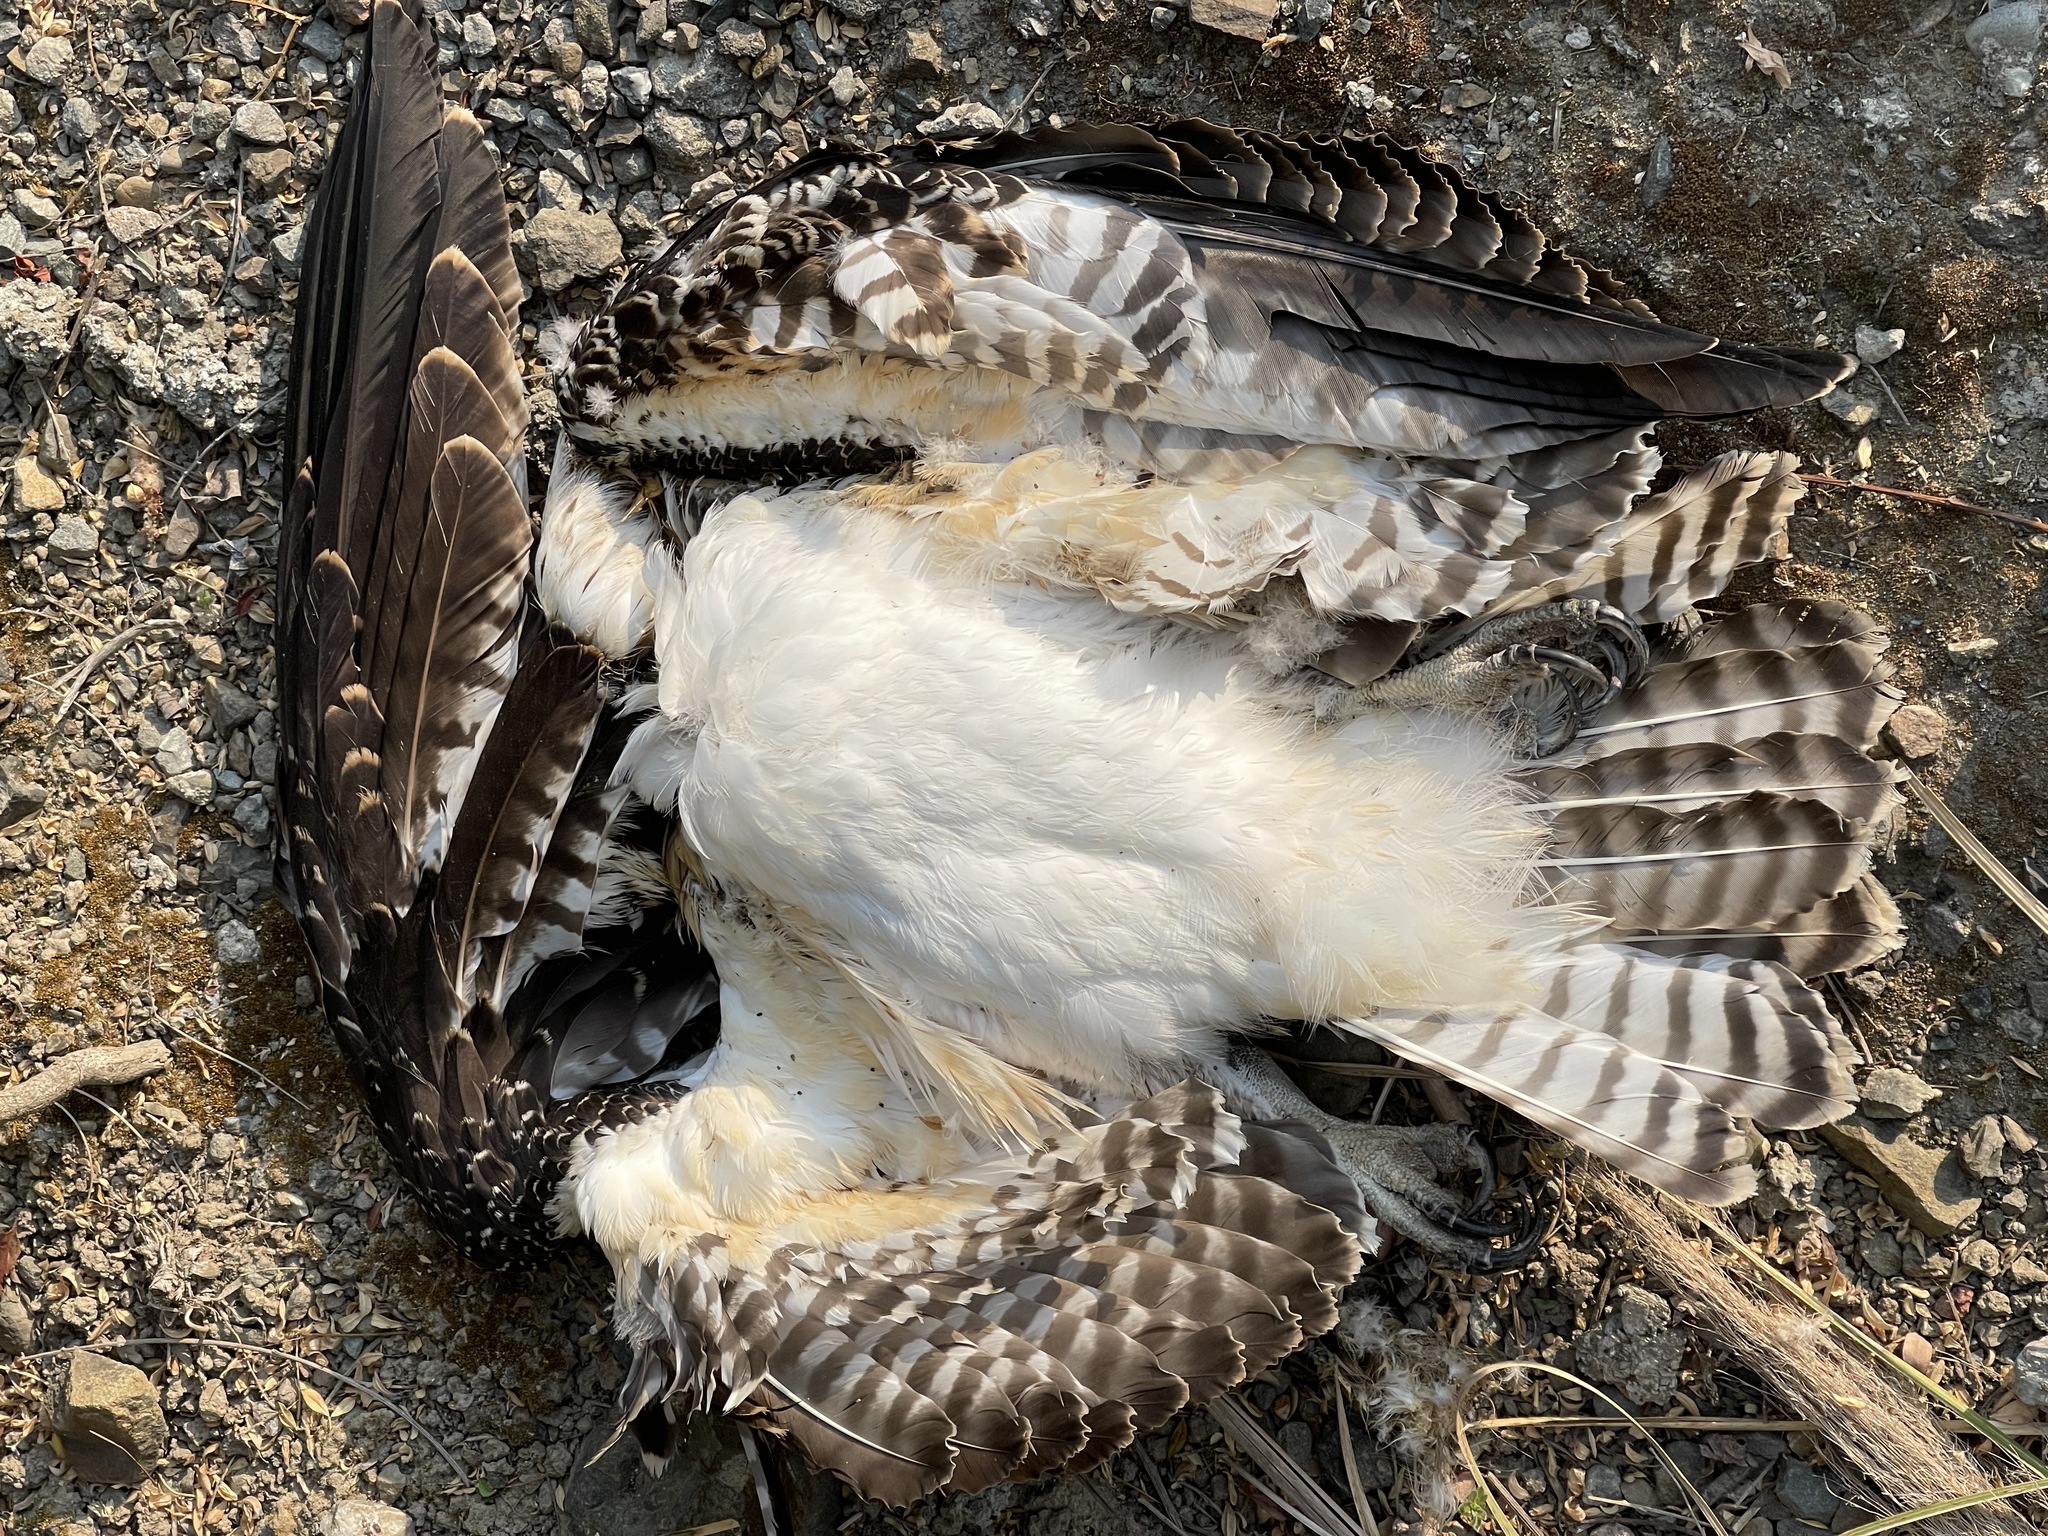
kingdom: Animalia
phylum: Chordata
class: Aves
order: Accipitriformes
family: Pandionidae
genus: Pandion
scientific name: Pandion haliaetus
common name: Osprey
